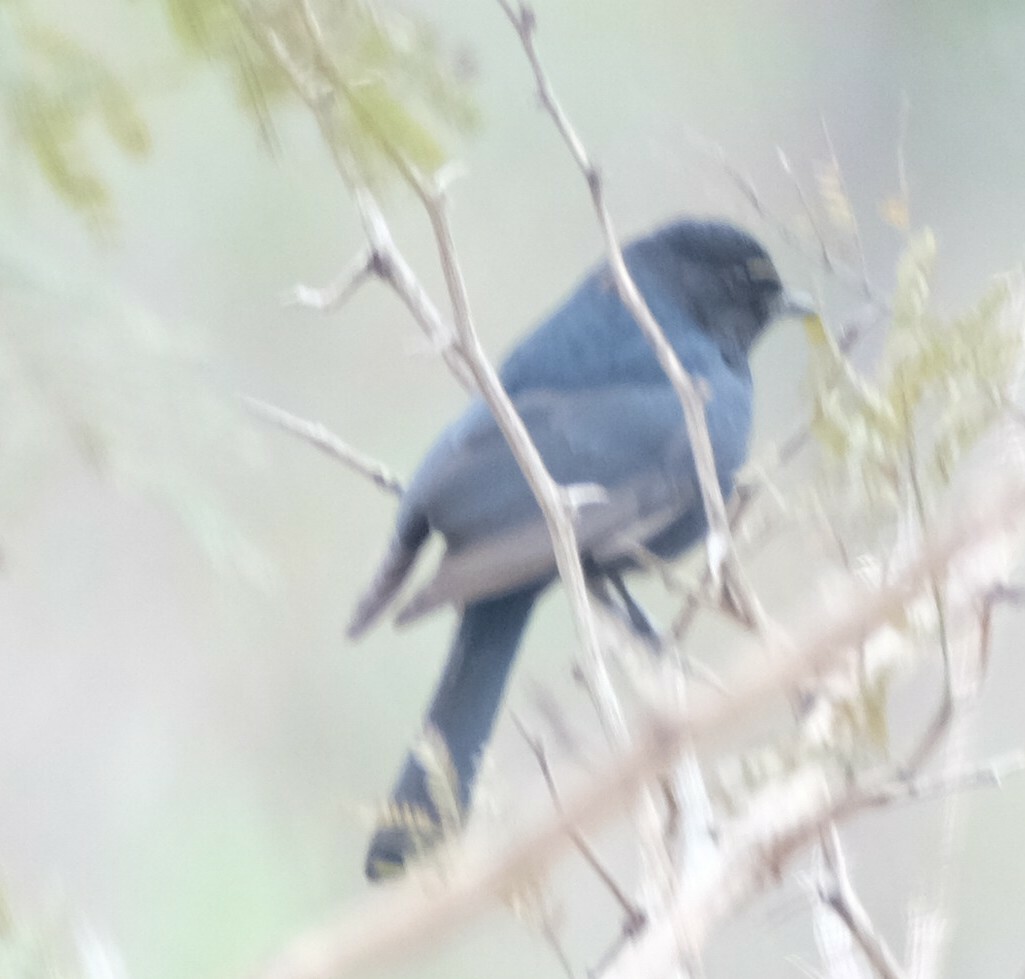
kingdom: Animalia
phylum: Chordata
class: Aves
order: Passeriformes
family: Dicruridae
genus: Dicrurus
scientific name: Dicrurus adsimilis
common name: Fork-tailed drongo
